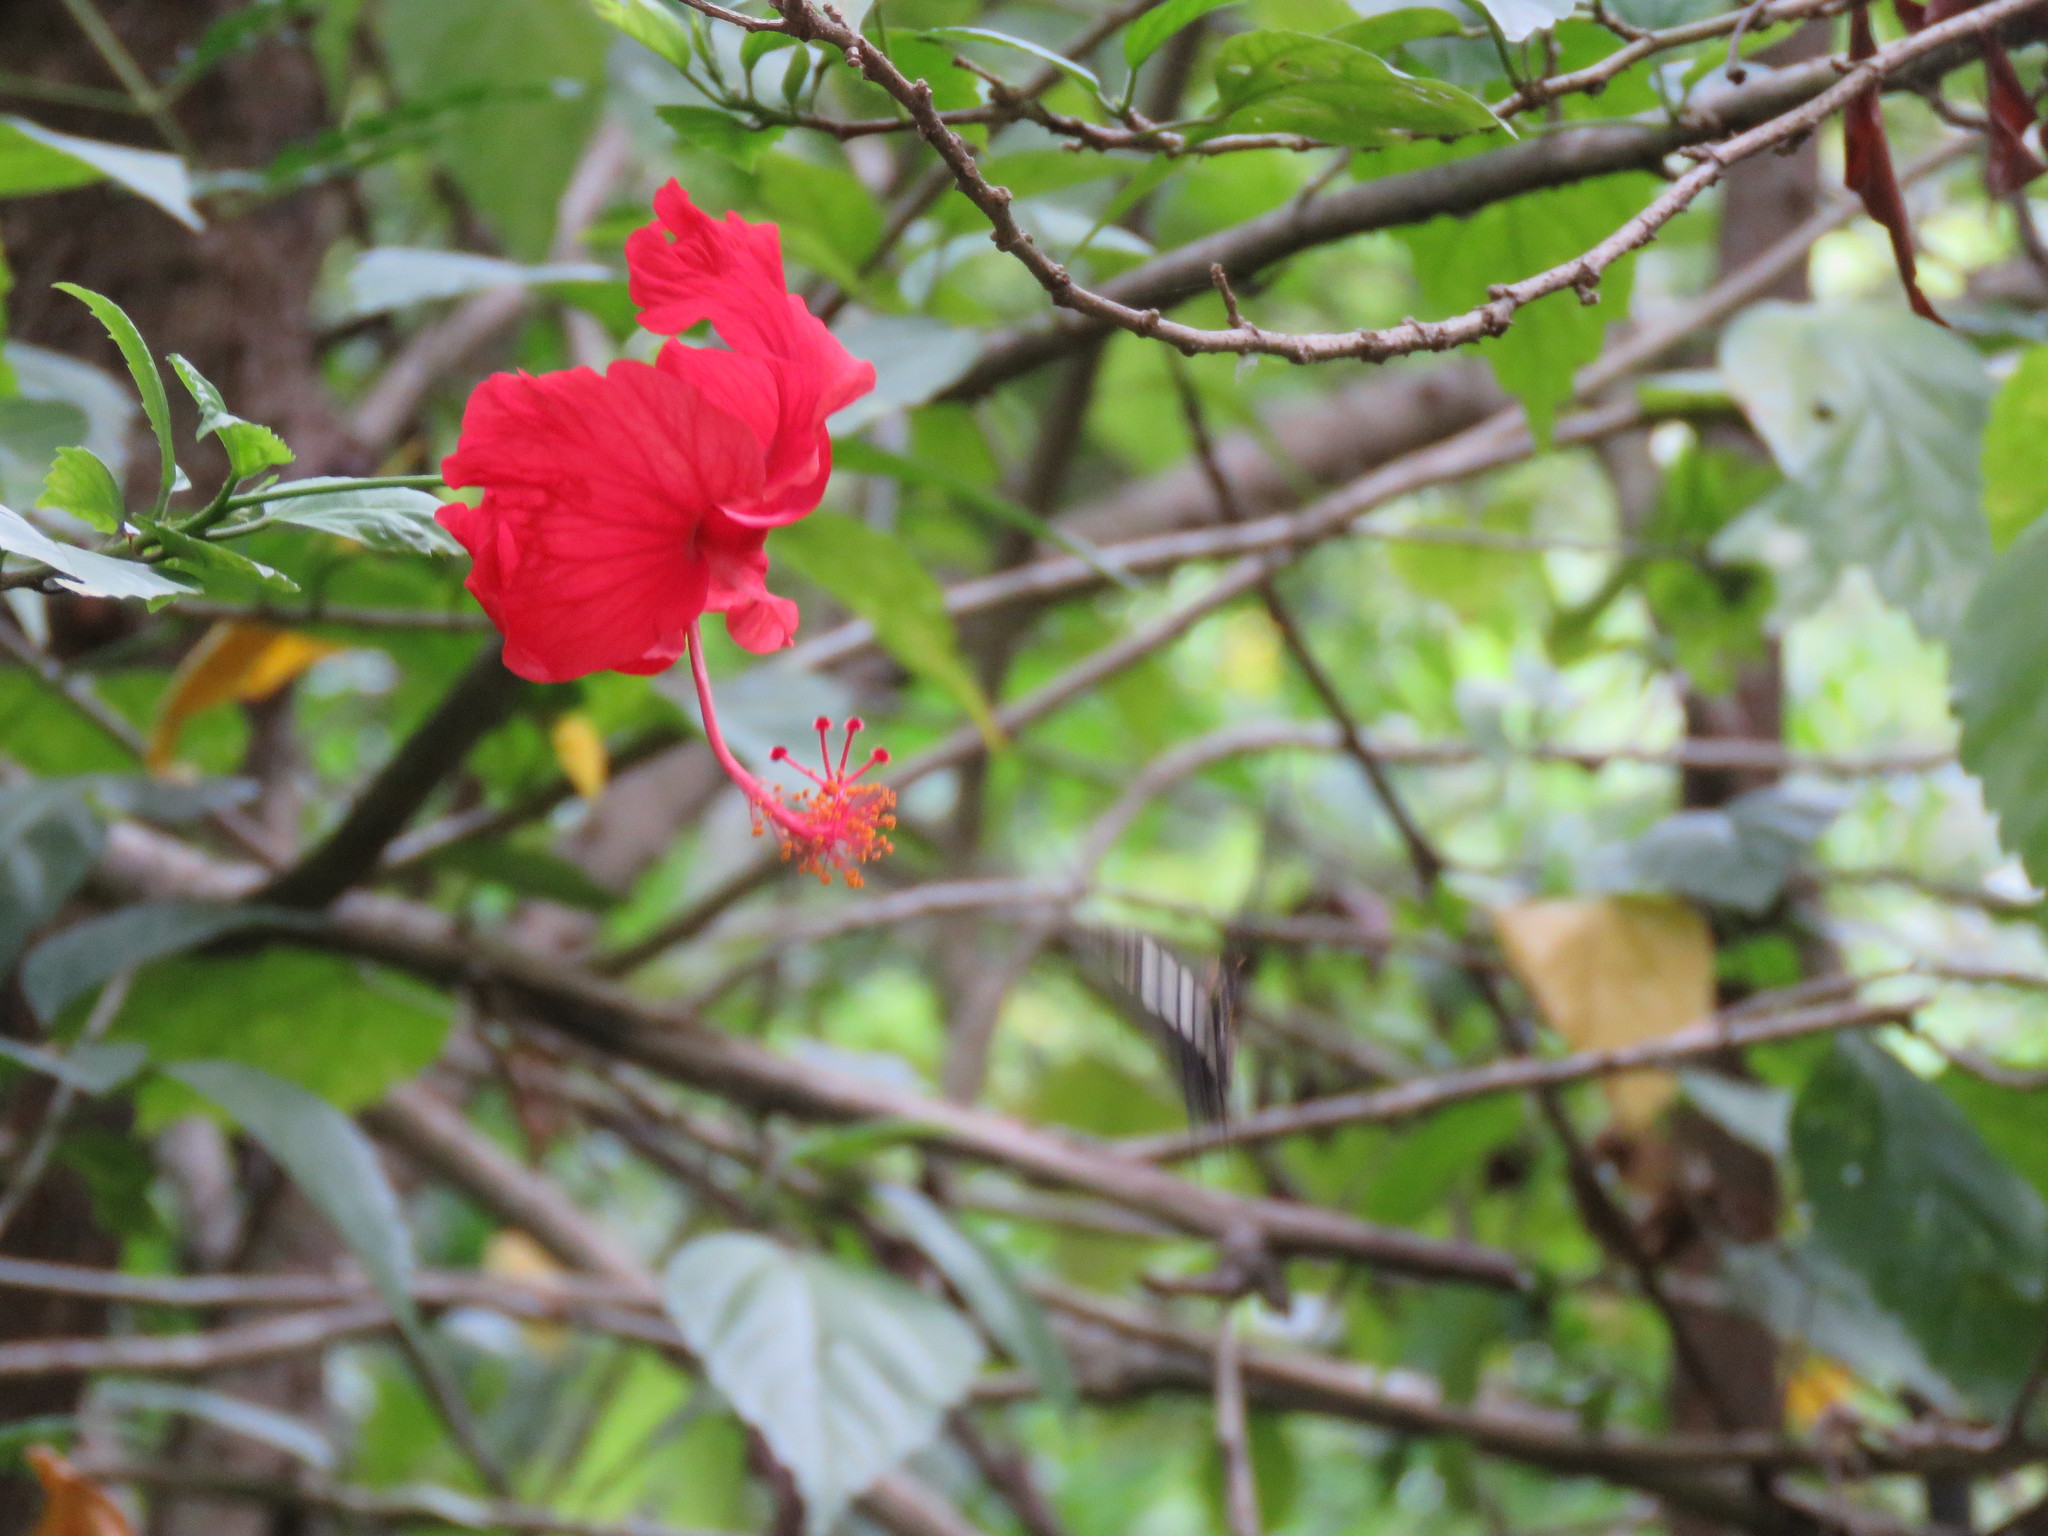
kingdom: Plantae
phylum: Tracheophyta
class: Magnoliopsida
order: Malvales
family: Malvaceae
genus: Hibiscus
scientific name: Hibiscus archeri
